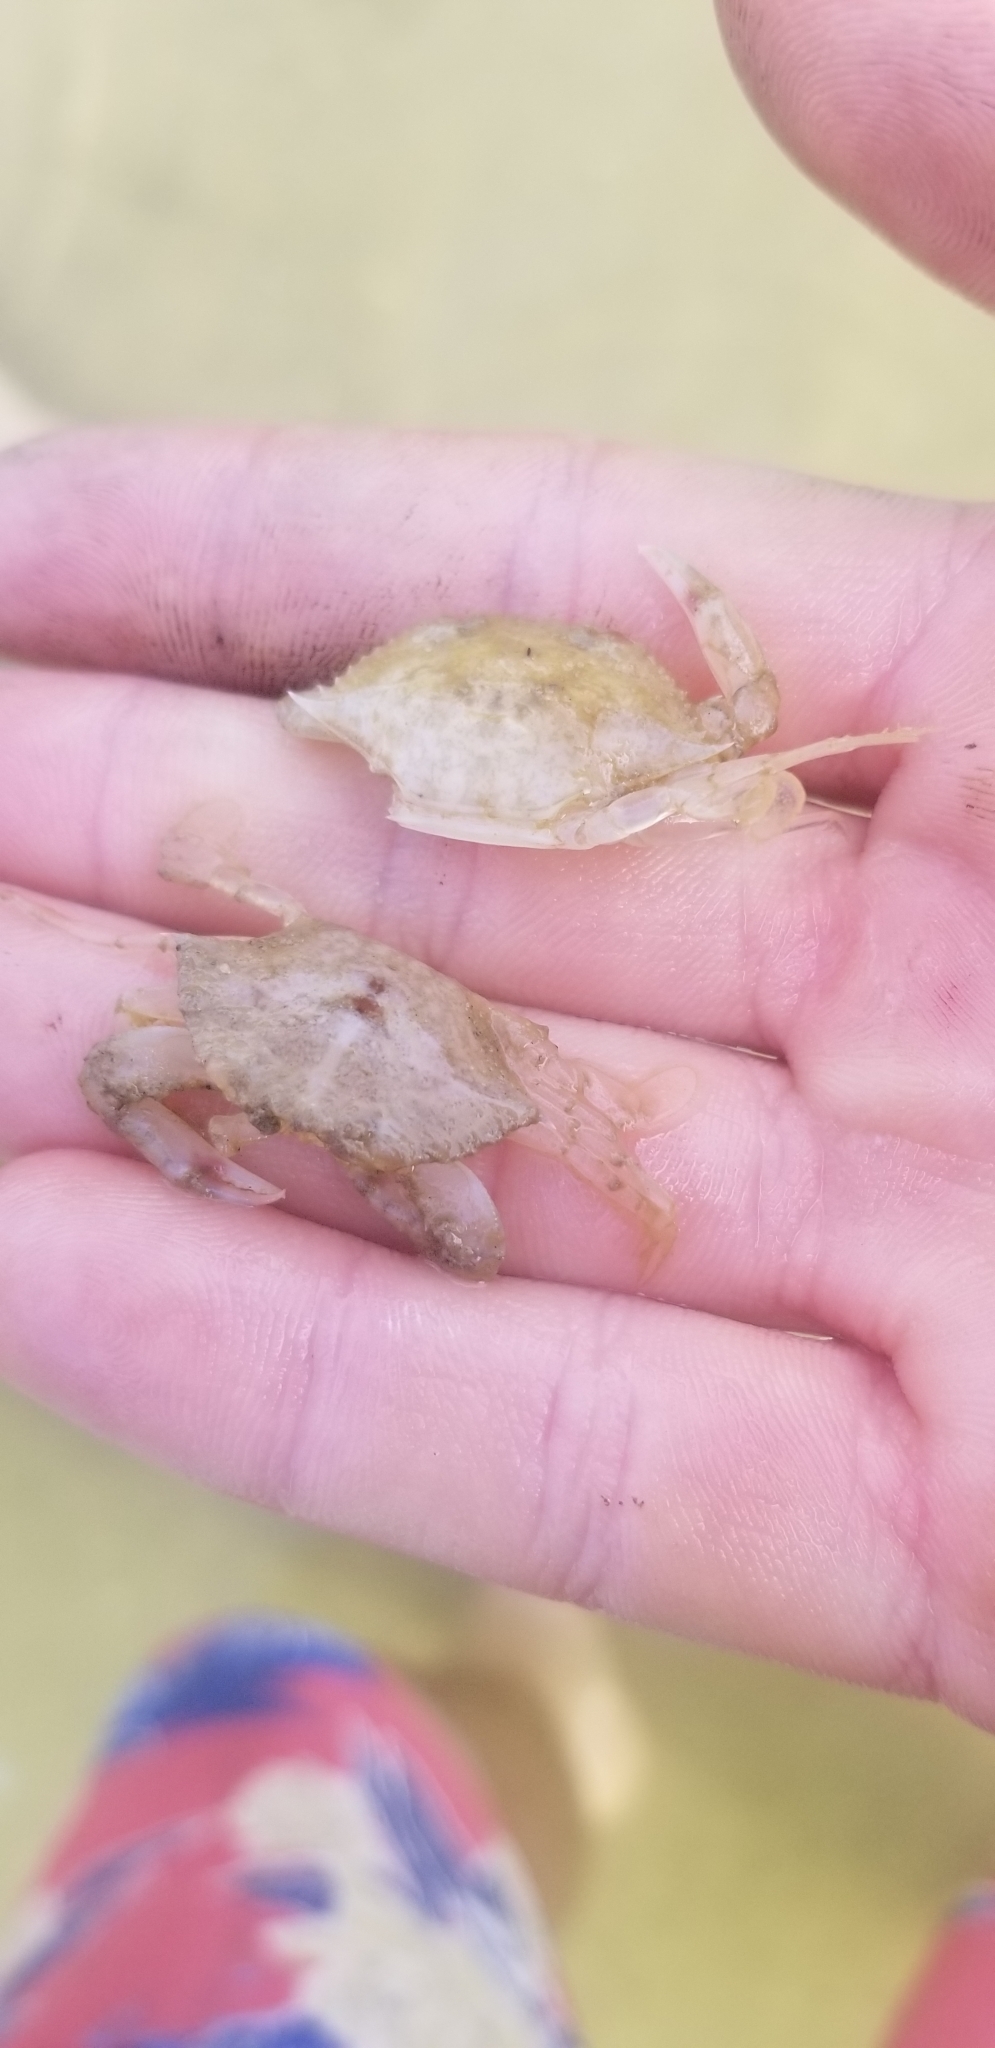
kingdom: Animalia
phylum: Arthropoda
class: Malacostraca
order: Decapoda
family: Portunidae
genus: Callinectes
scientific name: Callinectes sapidus
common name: Blue crab
